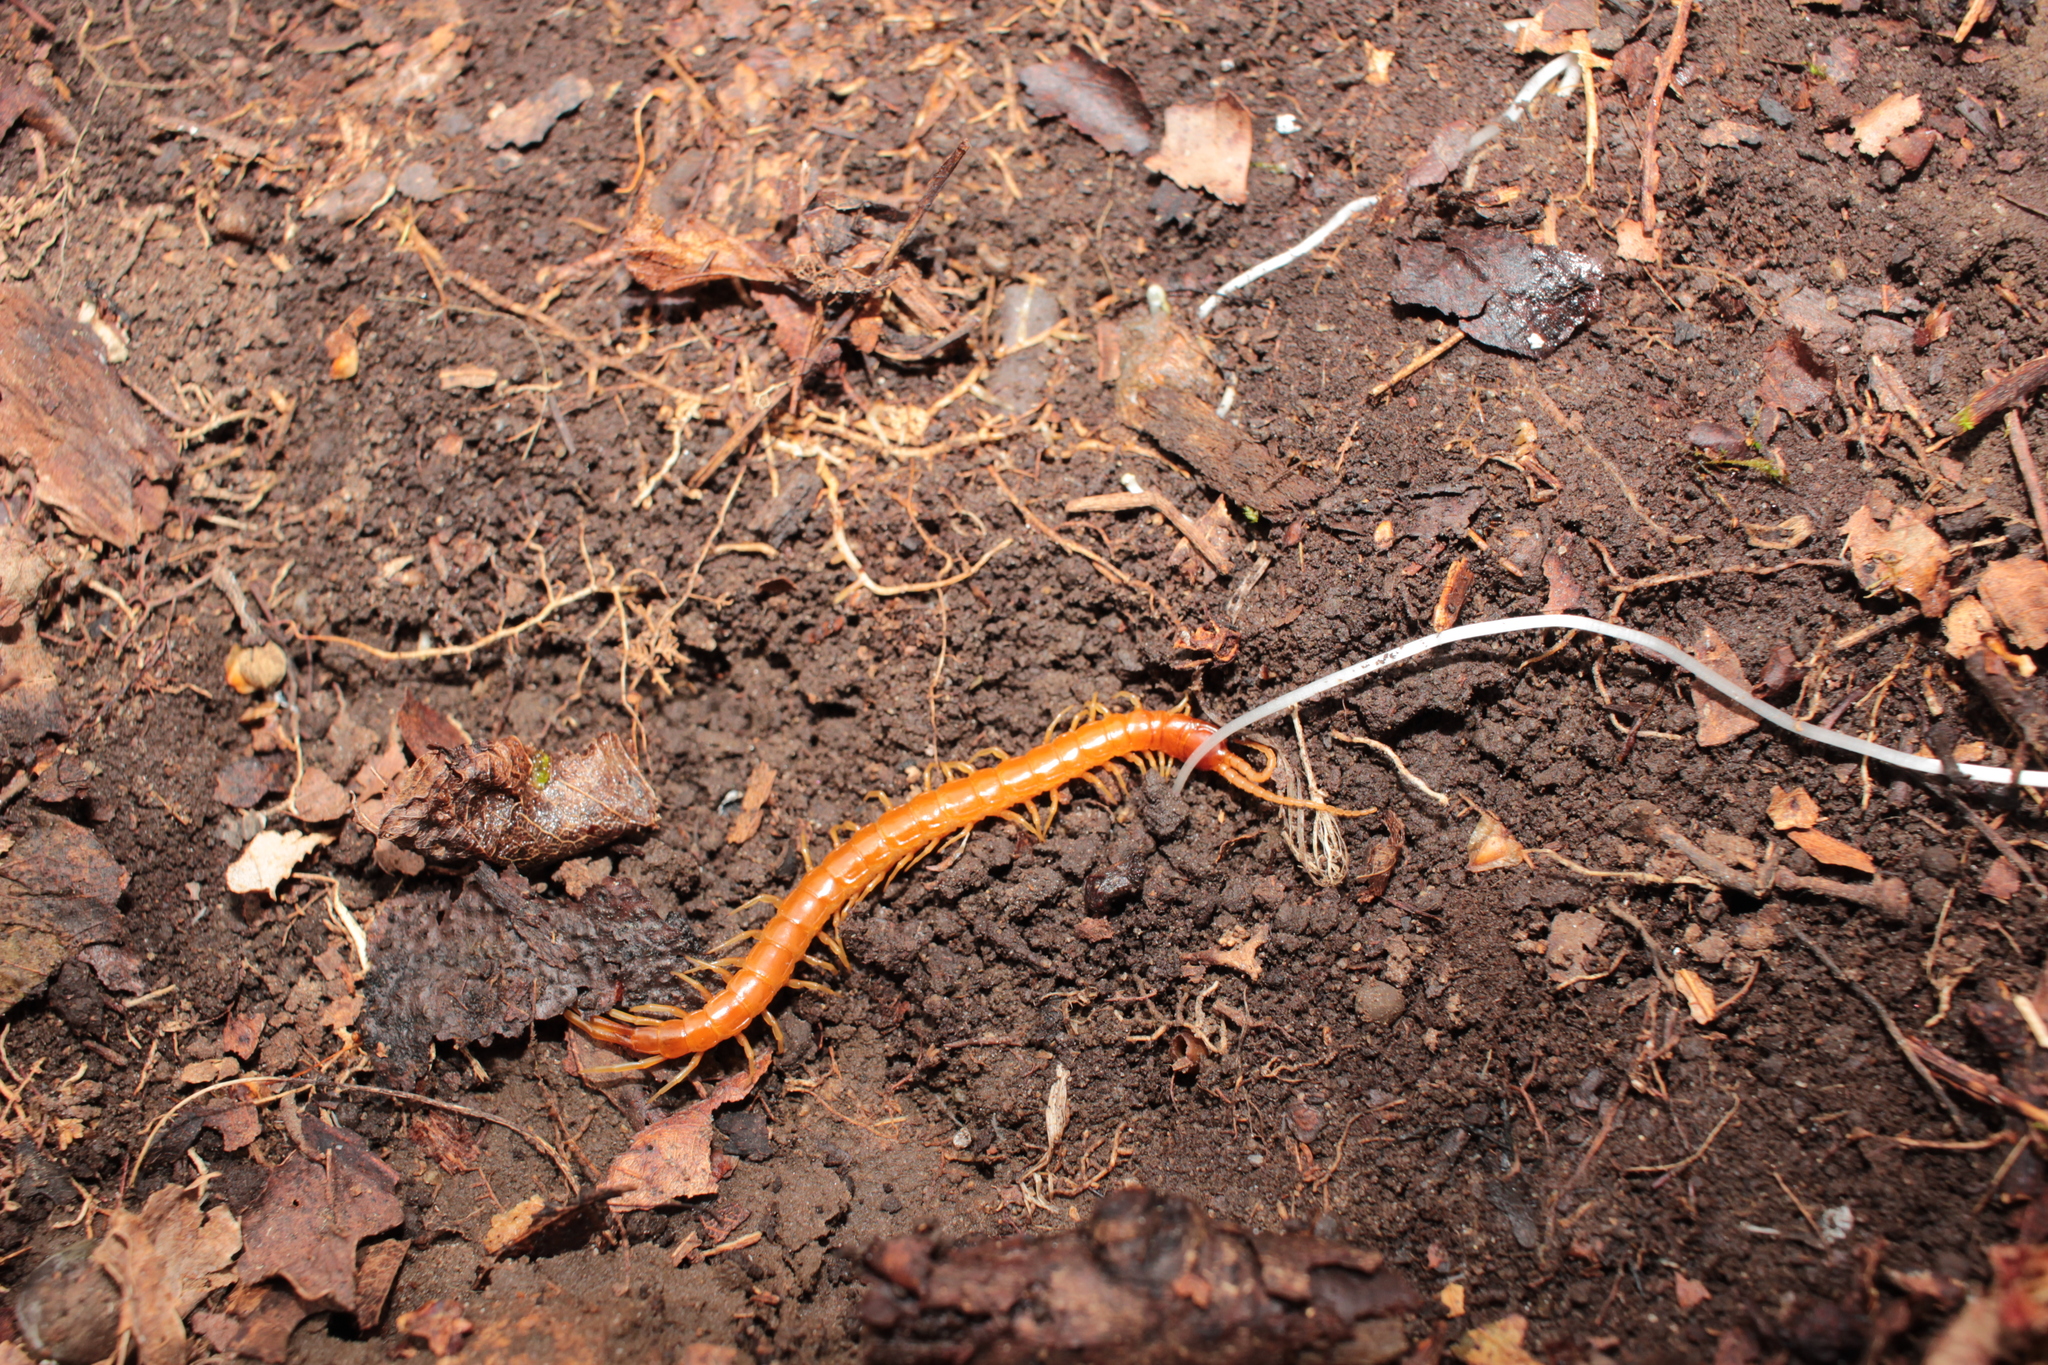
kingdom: Animalia
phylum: Arthropoda
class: Chilopoda
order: Scolopendromorpha
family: Scolopocryptopidae
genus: Scolopocryptops
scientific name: Scolopocryptops sexspinosus
